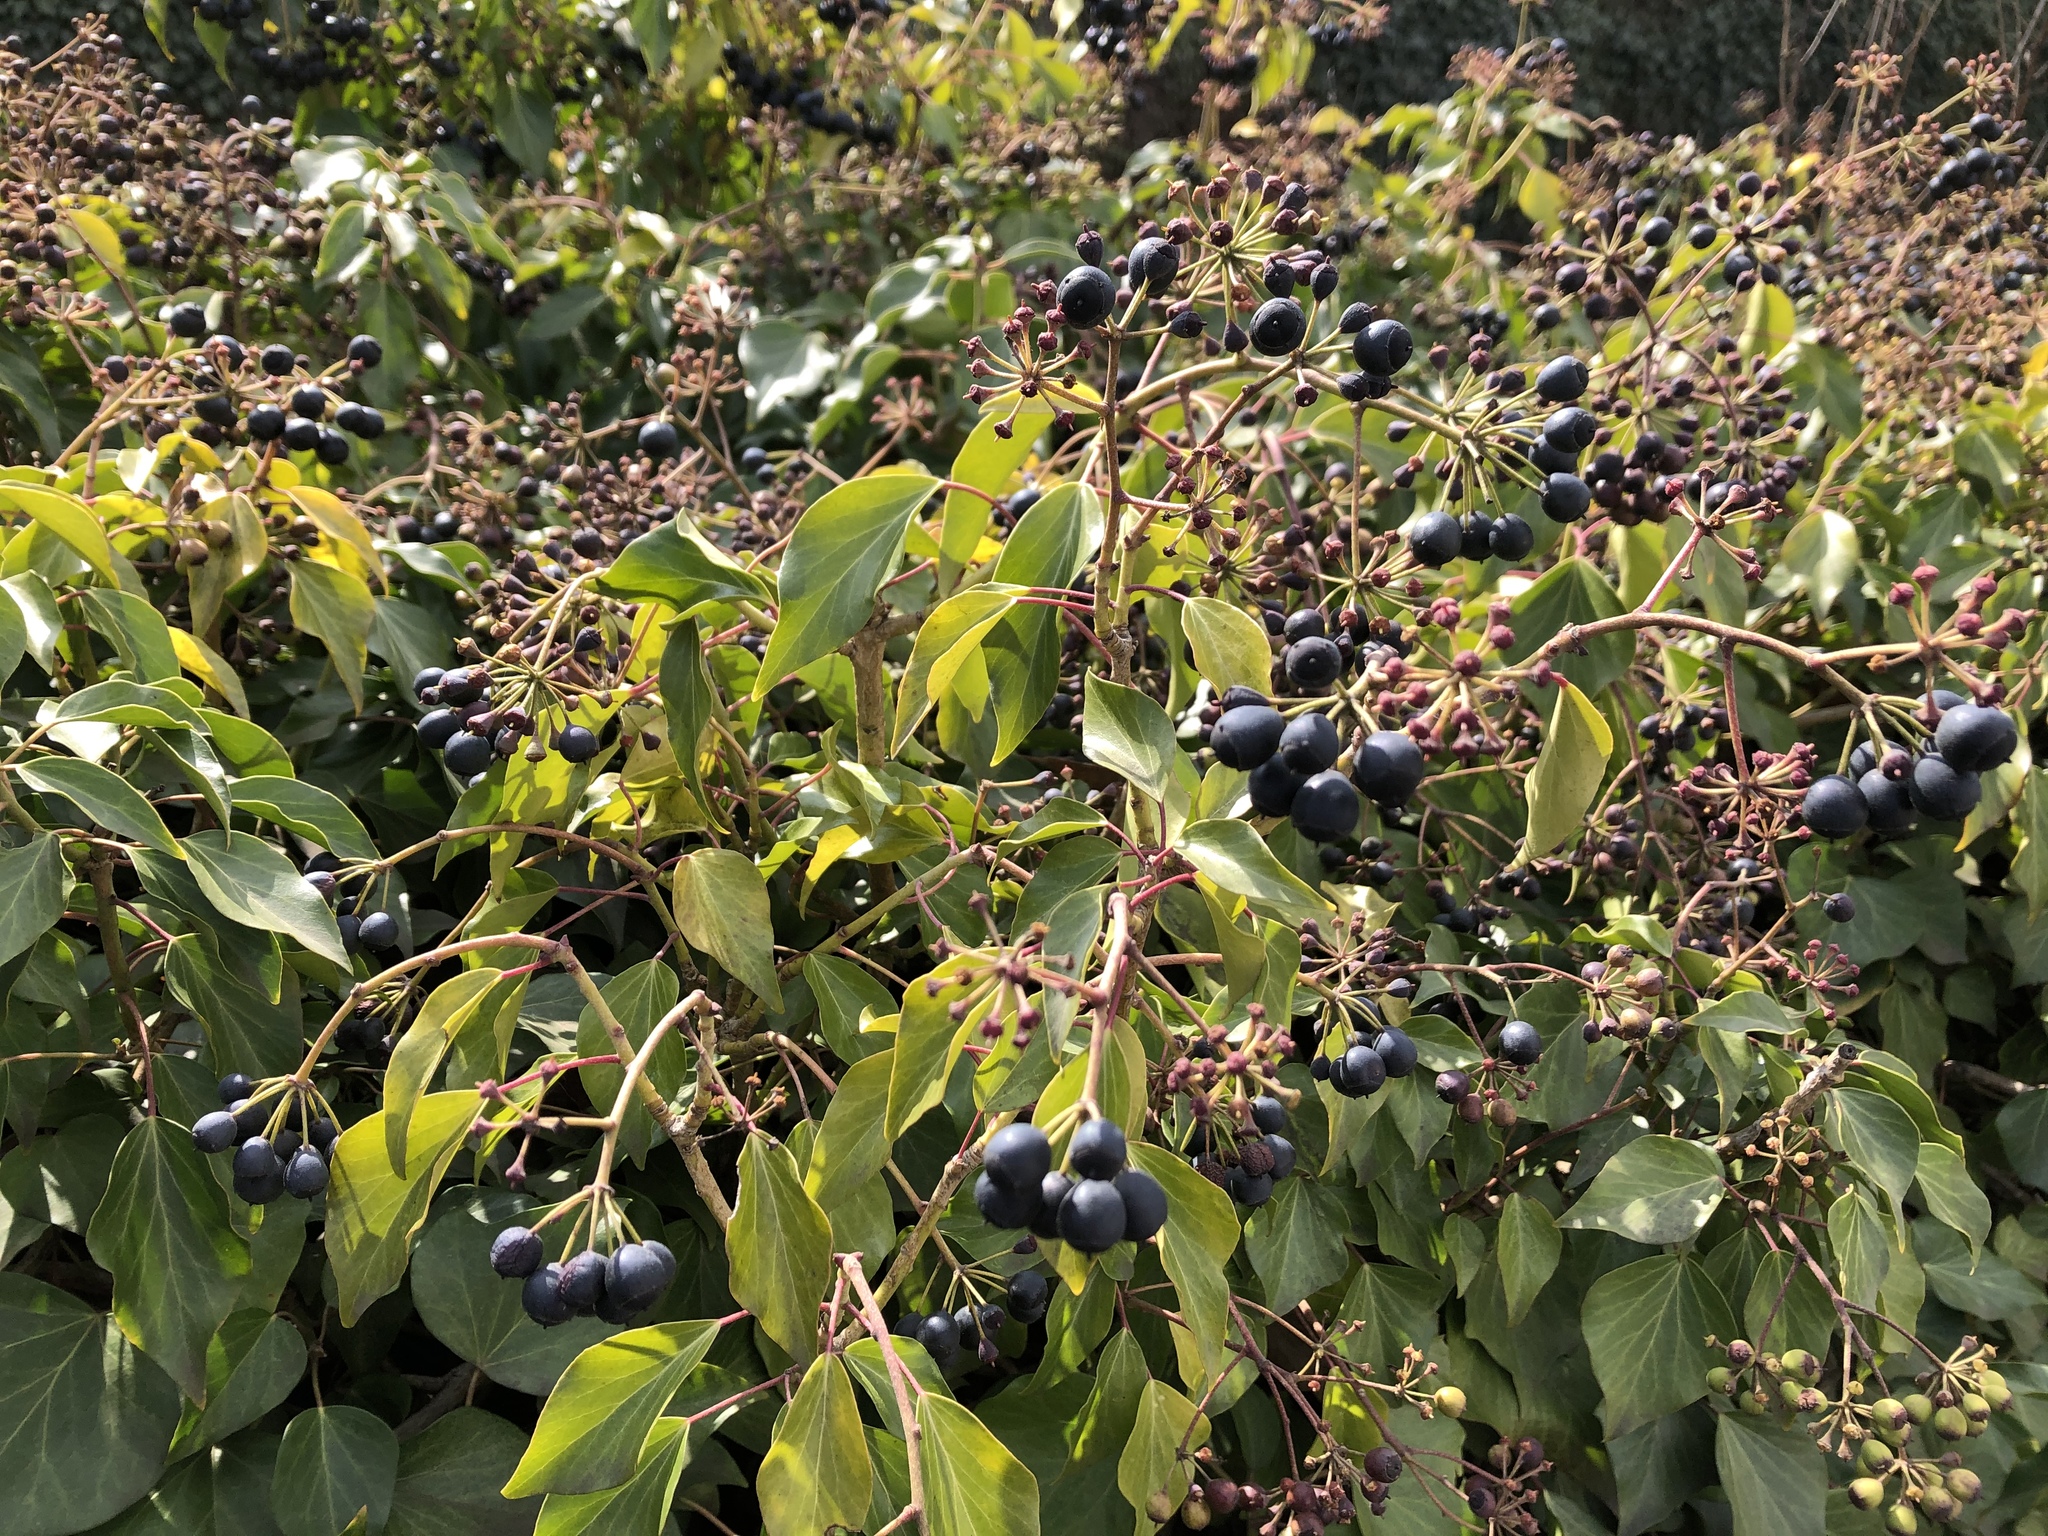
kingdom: Plantae
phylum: Tracheophyta
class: Magnoliopsida
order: Apiales
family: Araliaceae
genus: Hedera
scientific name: Hedera helix
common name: Ivy
